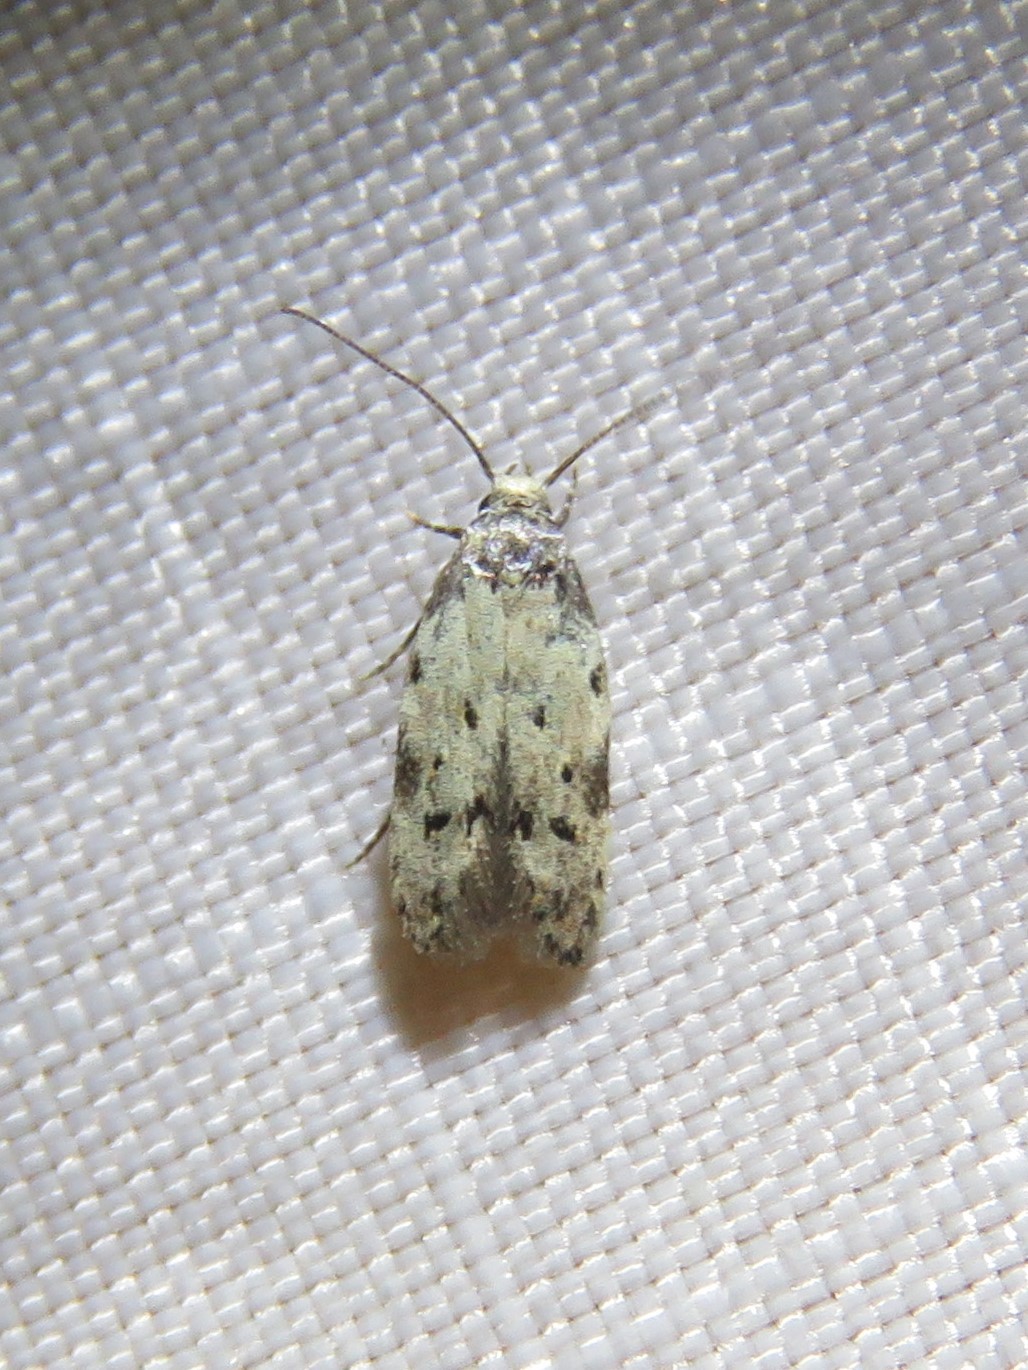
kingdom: Animalia
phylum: Arthropoda
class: Insecta
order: Lepidoptera
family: Autostichidae
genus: Taygete
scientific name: Taygete attributella
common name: Triangle-marked twirler moth
